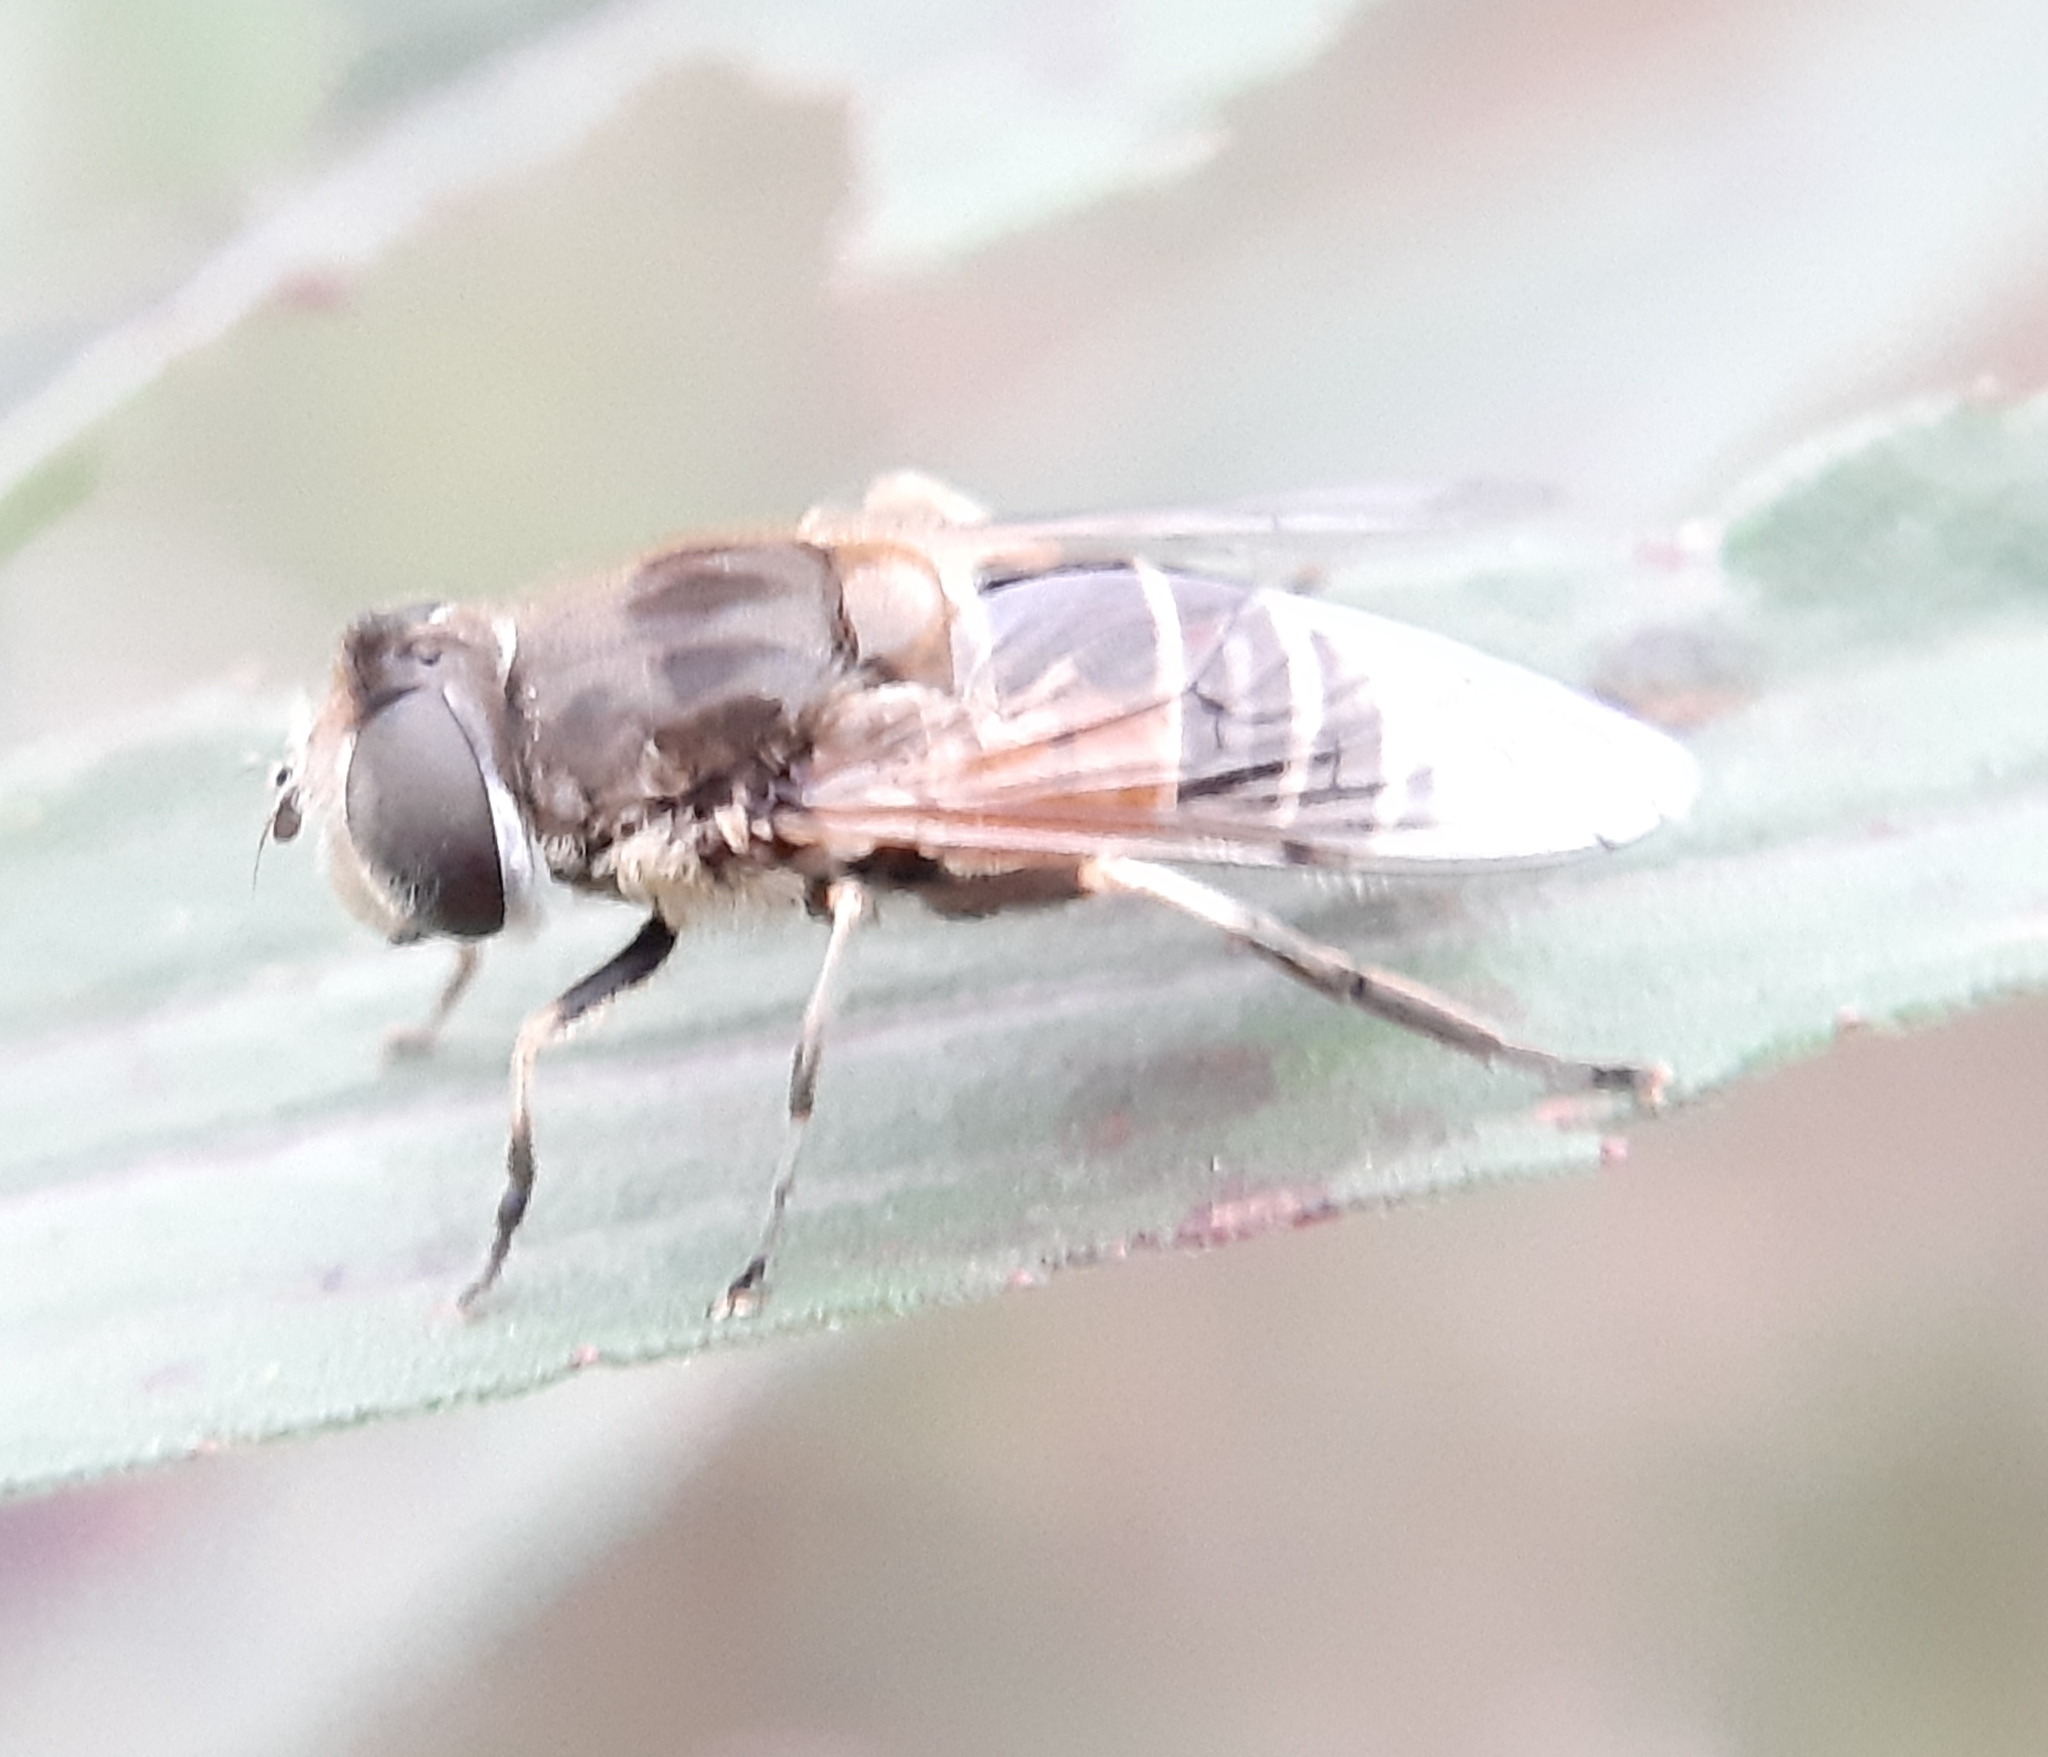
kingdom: Animalia
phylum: Arthropoda
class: Insecta
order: Diptera
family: Syrphidae
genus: Eristalis
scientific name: Eristalis arbustorum
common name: Hover fly
